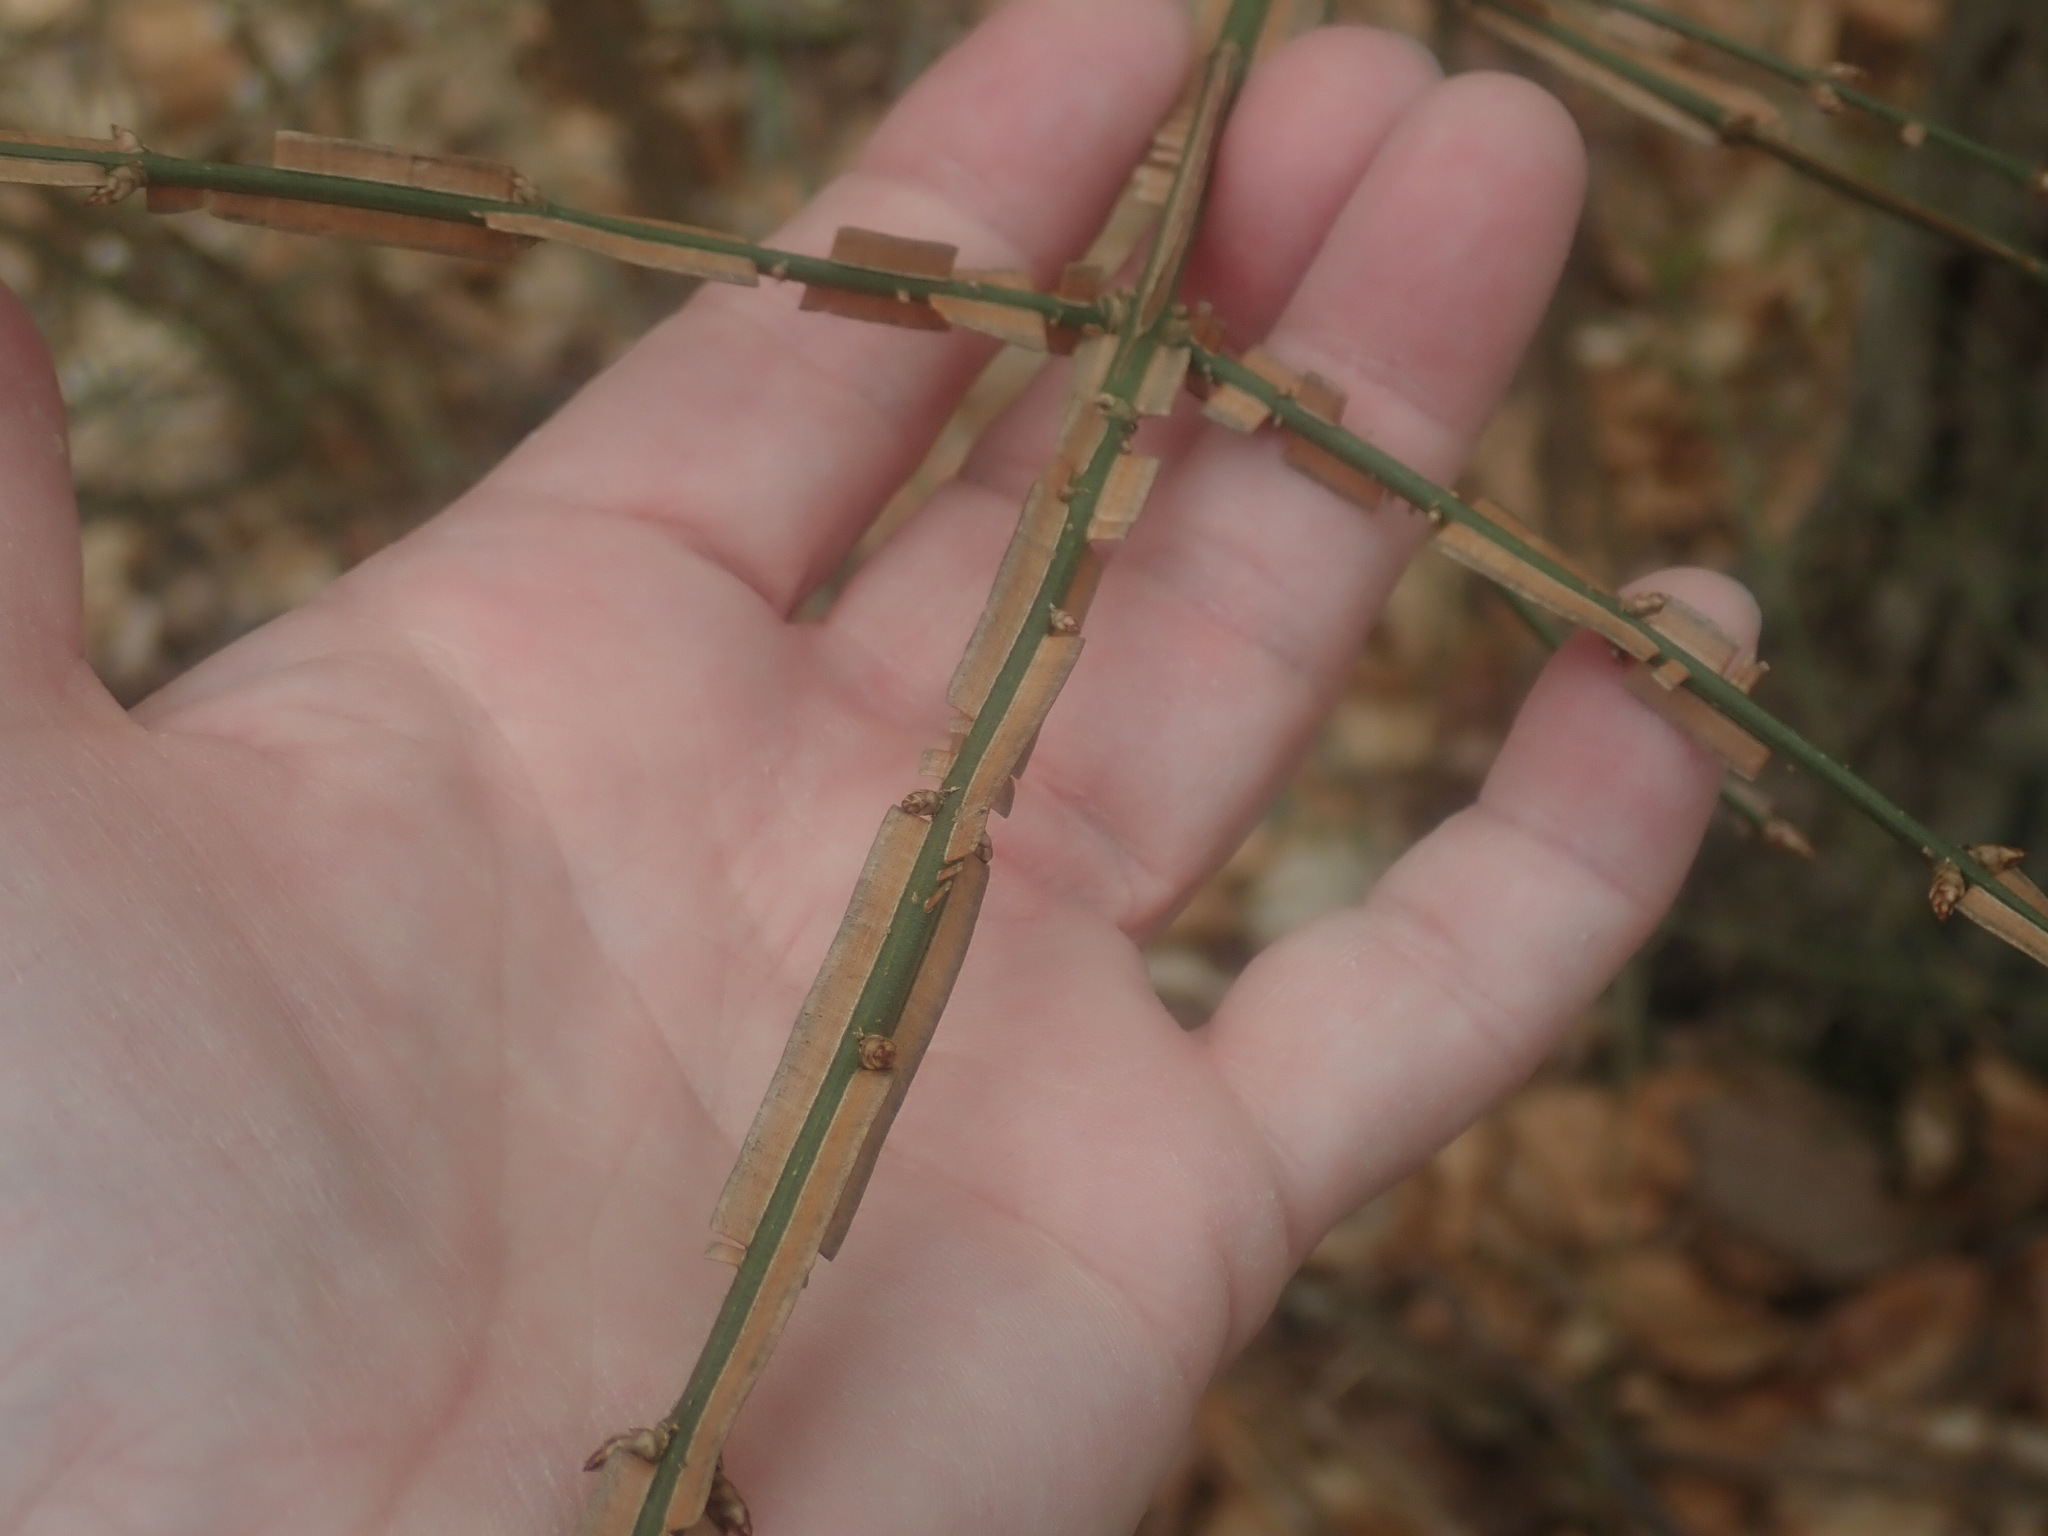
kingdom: Plantae
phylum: Tracheophyta
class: Magnoliopsida
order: Celastrales
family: Celastraceae
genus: Euonymus
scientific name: Euonymus alatus
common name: Winged euonymus
